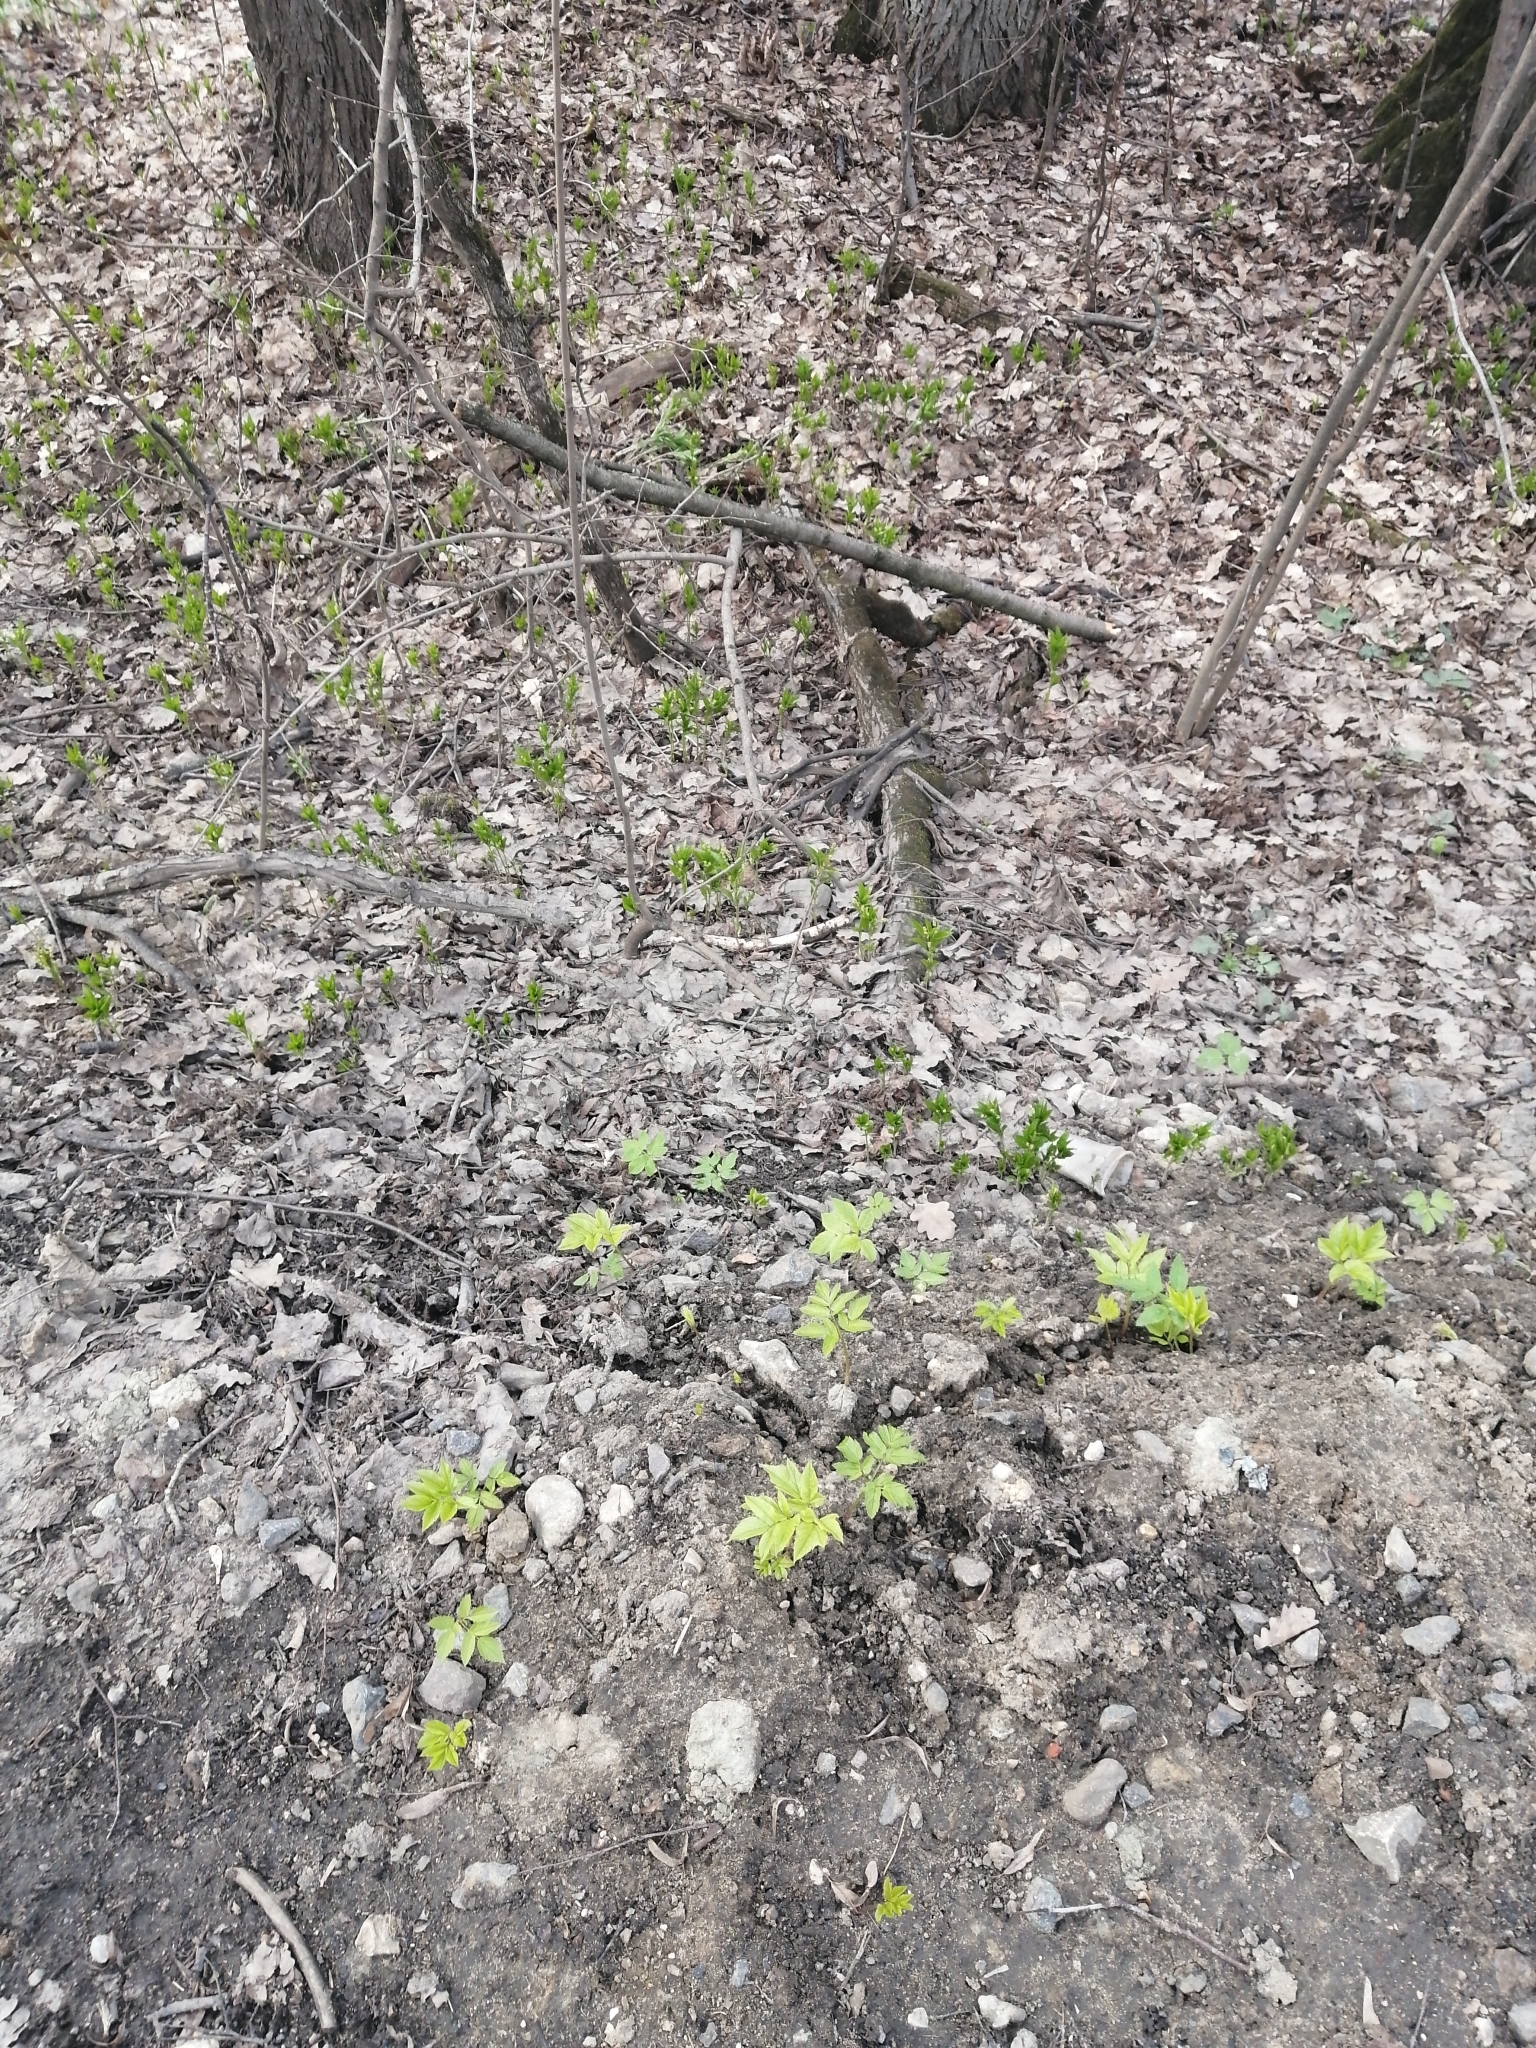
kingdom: Plantae
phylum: Tracheophyta
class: Magnoliopsida
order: Apiales
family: Apiaceae
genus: Aegopodium
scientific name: Aegopodium podagraria
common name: Ground-elder
